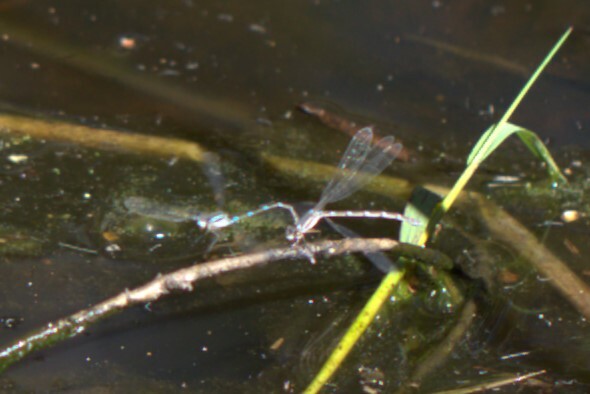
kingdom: Animalia
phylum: Arthropoda
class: Insecta
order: Odonata
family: Lestidae
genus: Austrolestes
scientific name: Austrolestes leda
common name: Wandering ringtail
